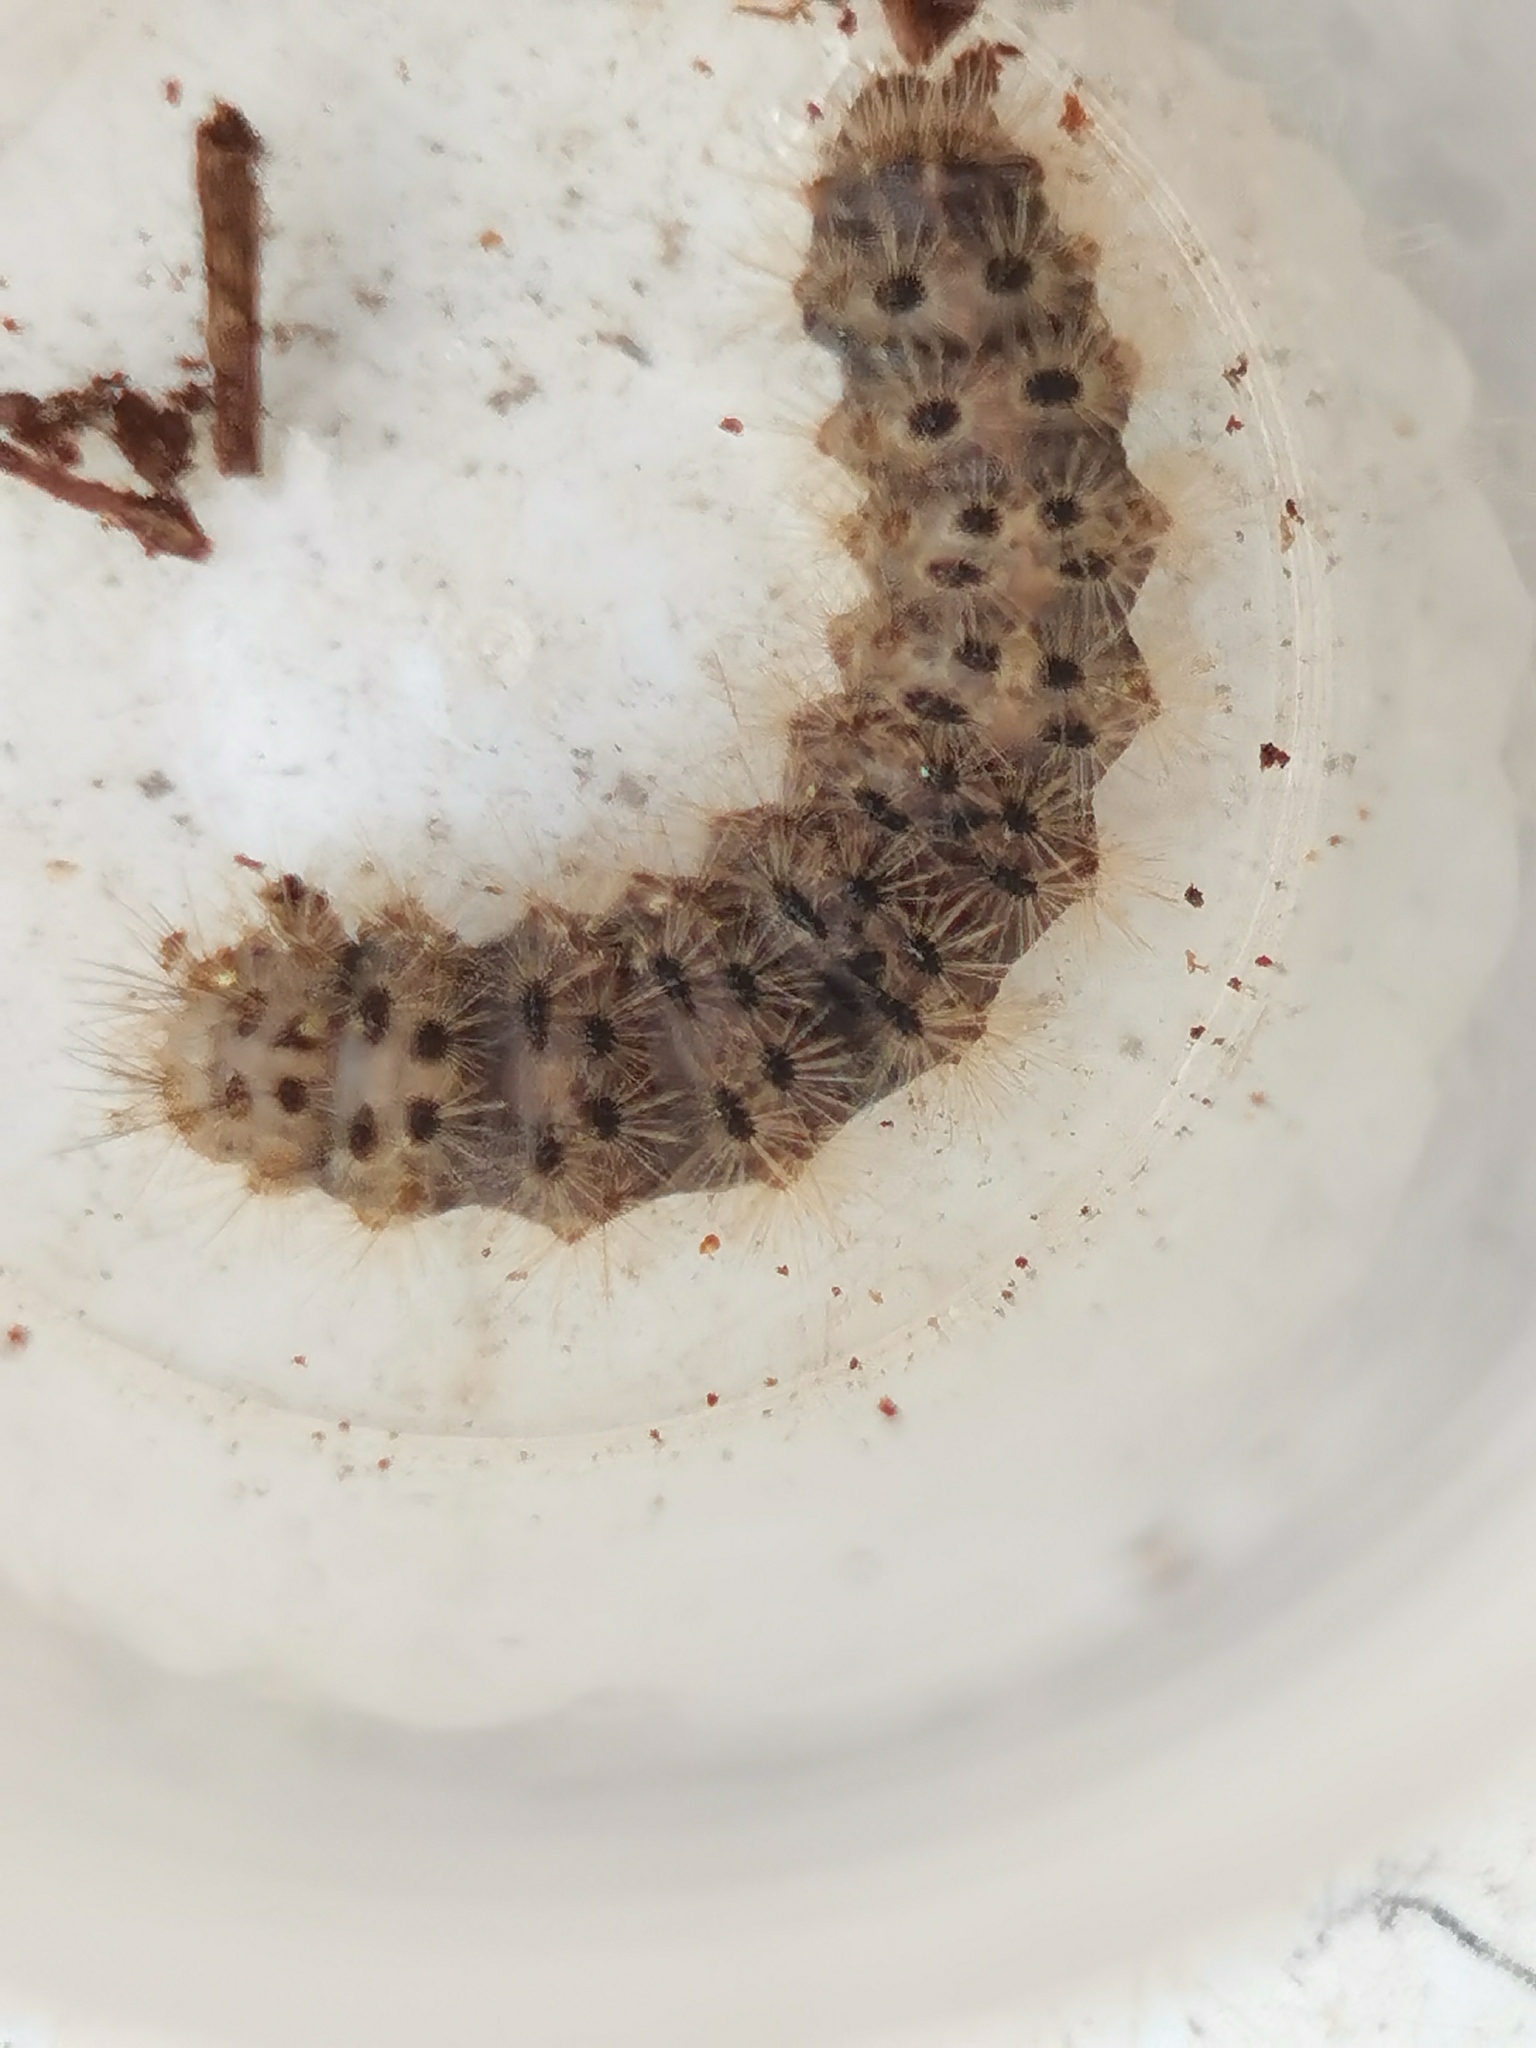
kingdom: Animalia
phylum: Arthropoda
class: Insecta
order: Lepidoptera
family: Erebidae
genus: Cymbalophora
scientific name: Cymbalophora pudica
